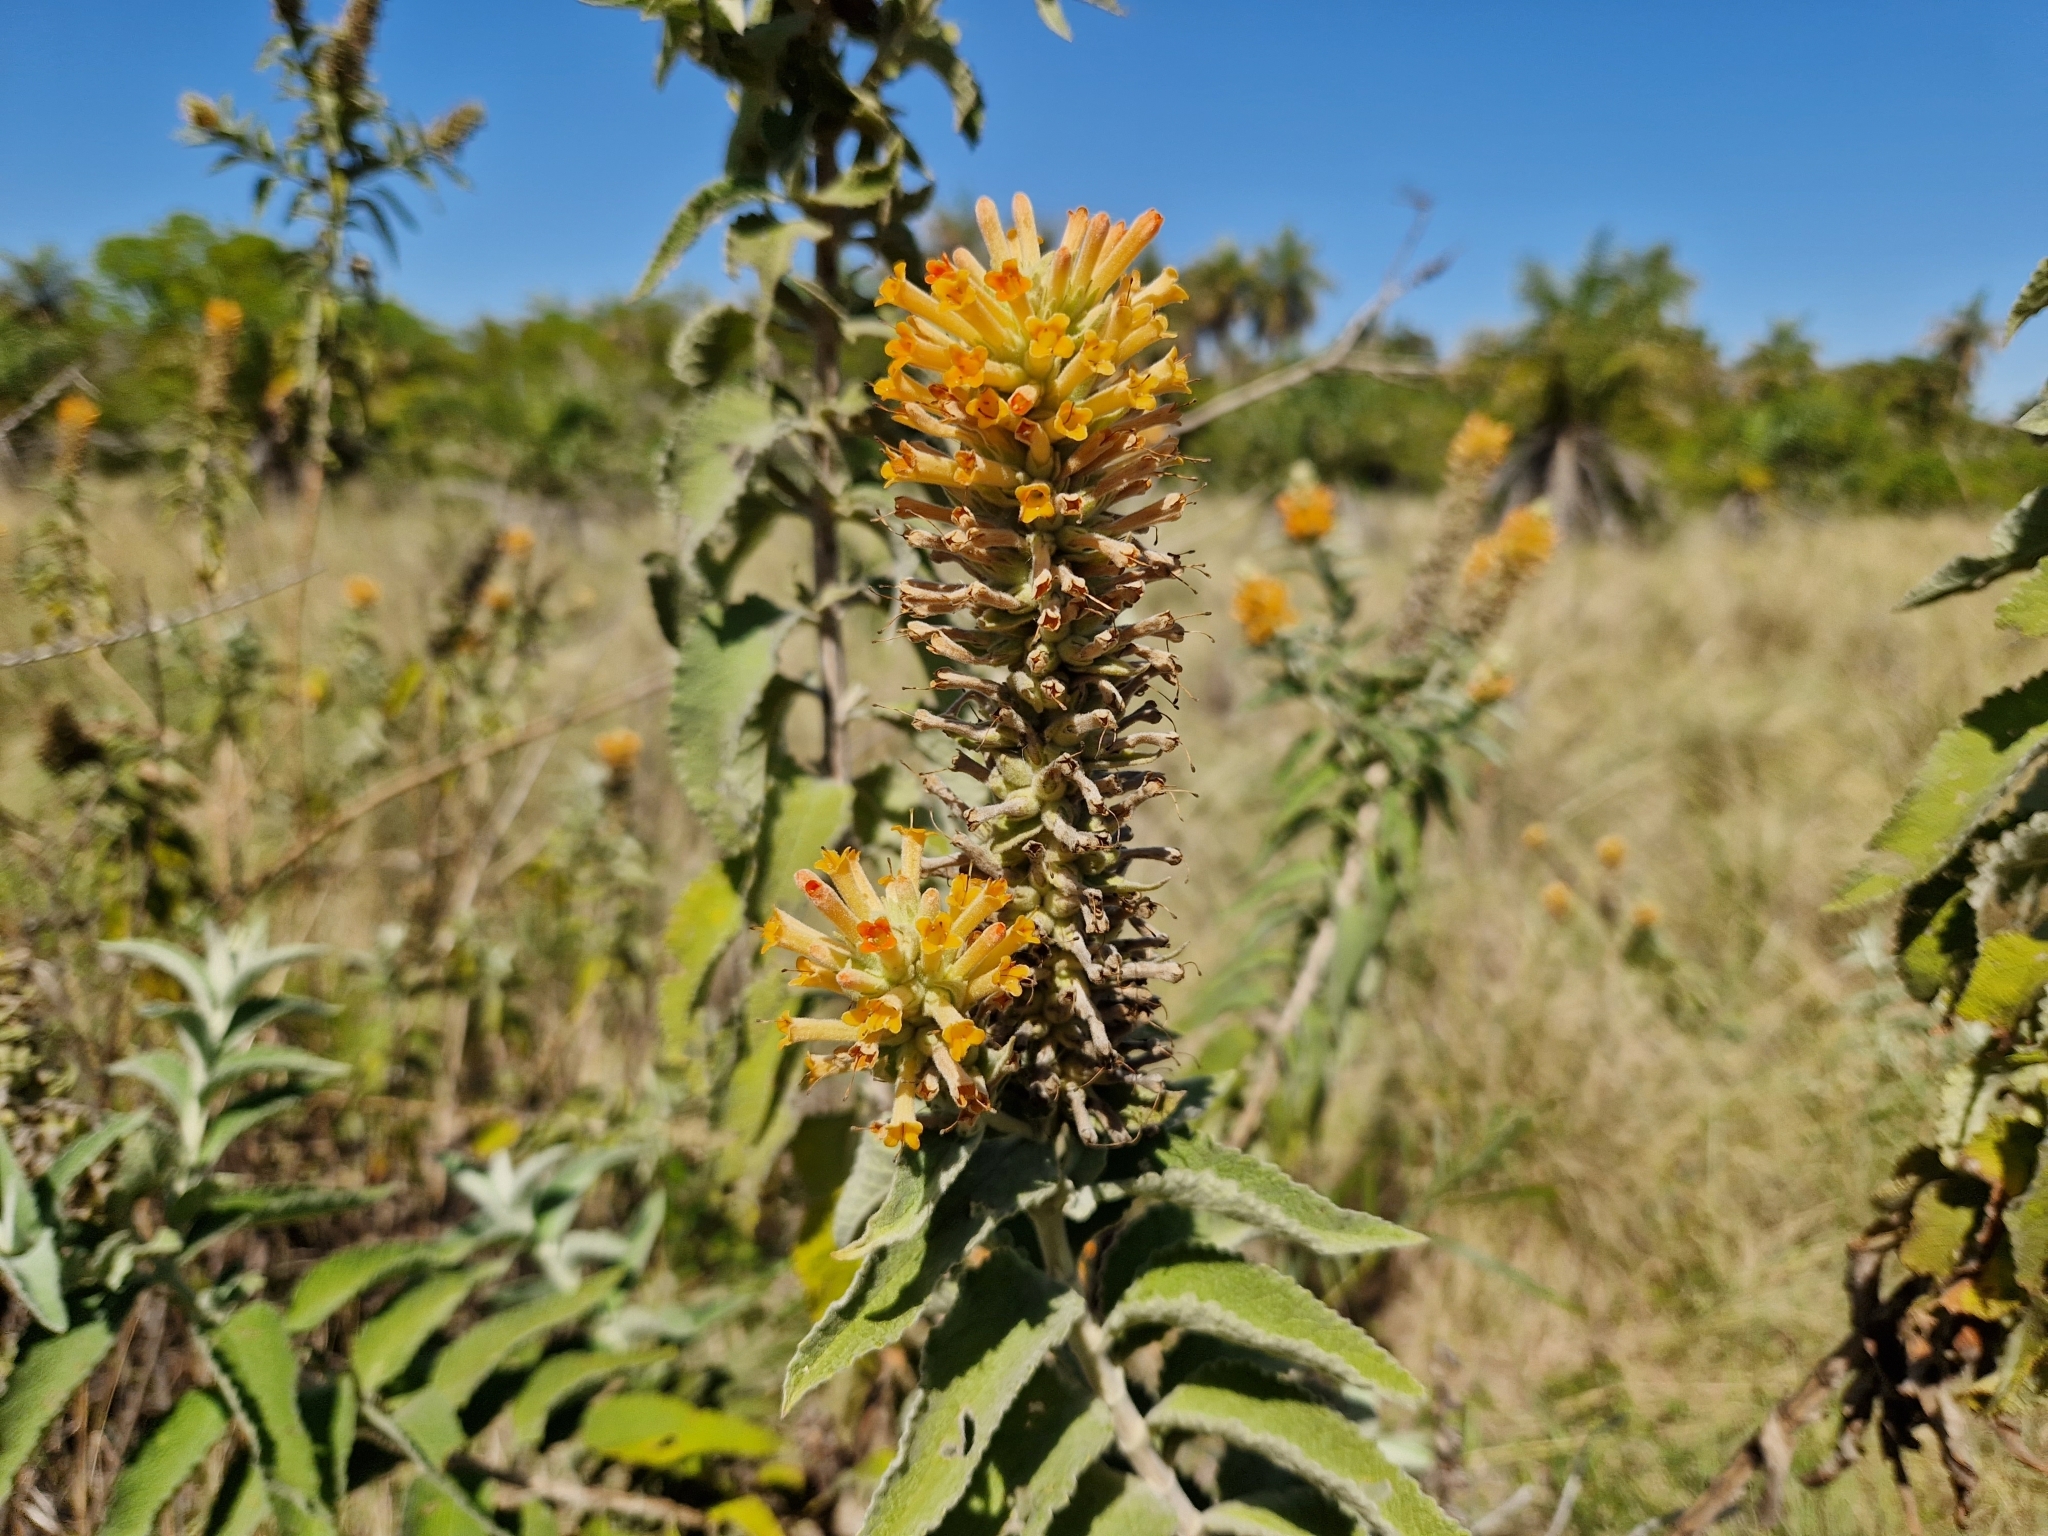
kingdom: Plantae
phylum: Tracheophyta
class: Magnoliopsida
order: Lamiales
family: Scrophulariaceae
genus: Buddleja
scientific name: Buddleja tubiflora
